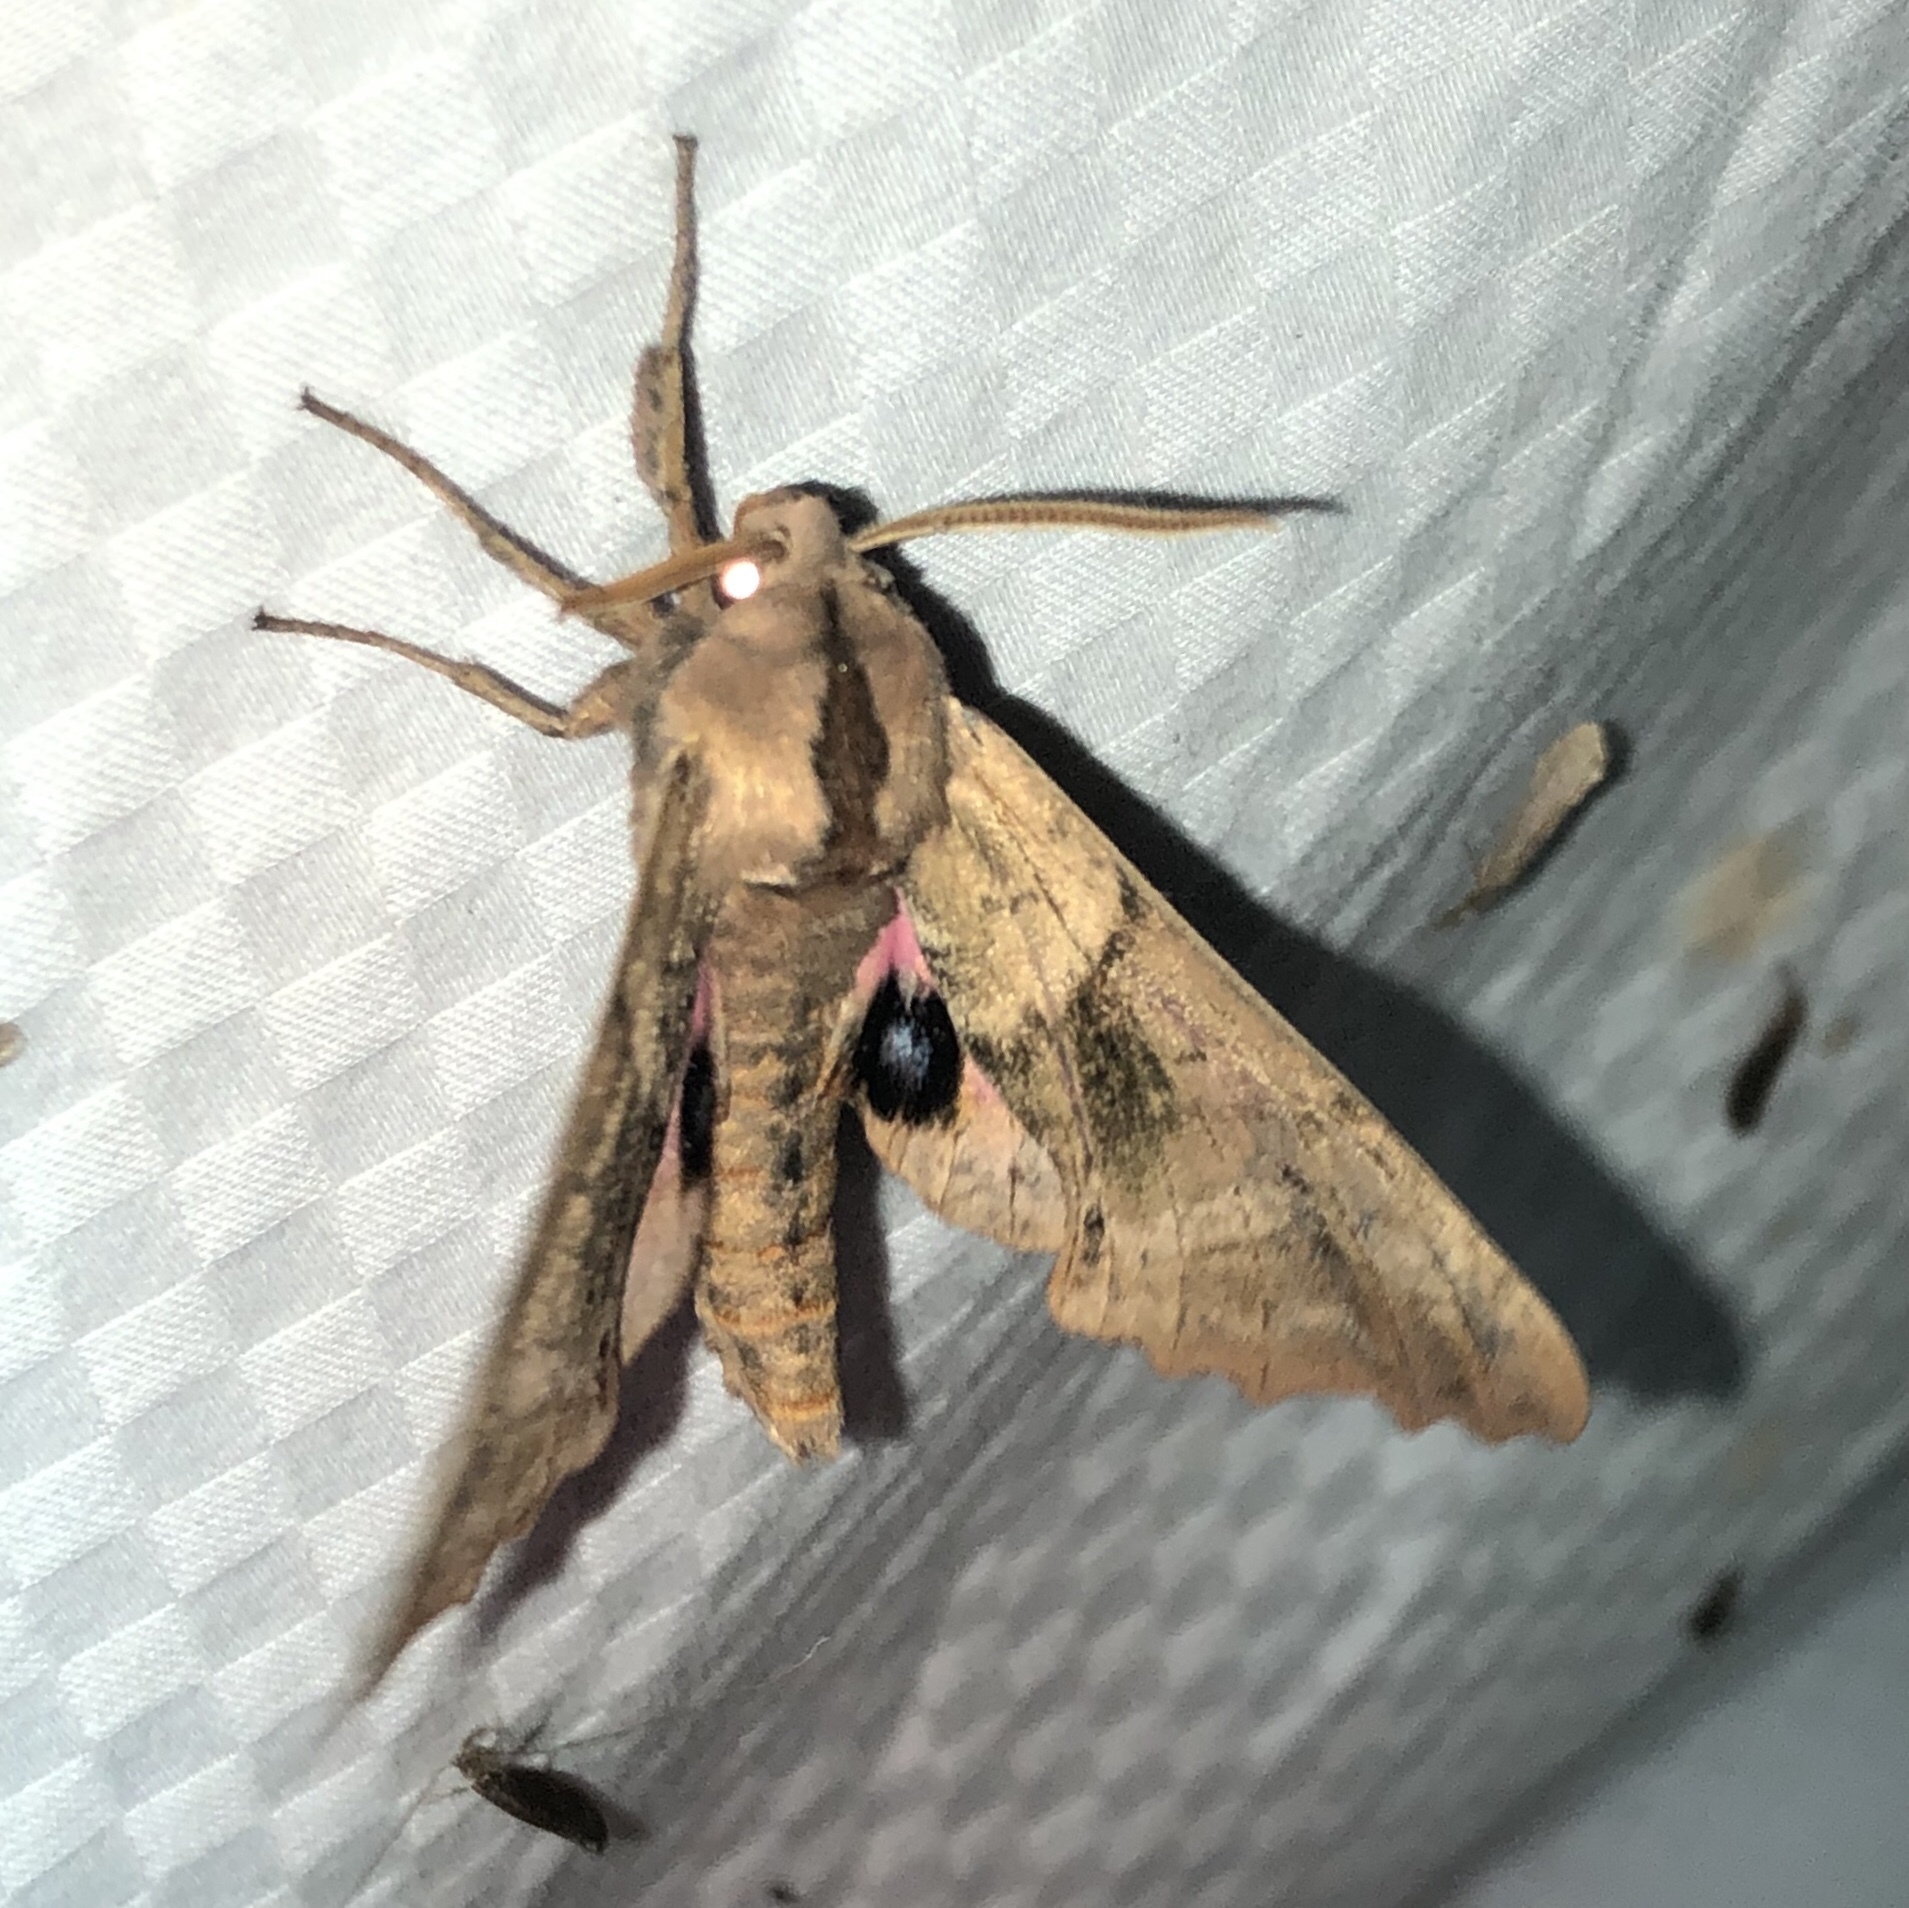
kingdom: Animalia
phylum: Arthropoda
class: Insecta
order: Lepidoptera
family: Sphingidae
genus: Paonias
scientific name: Paonias excaecata
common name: Blind-eyed sphinx
